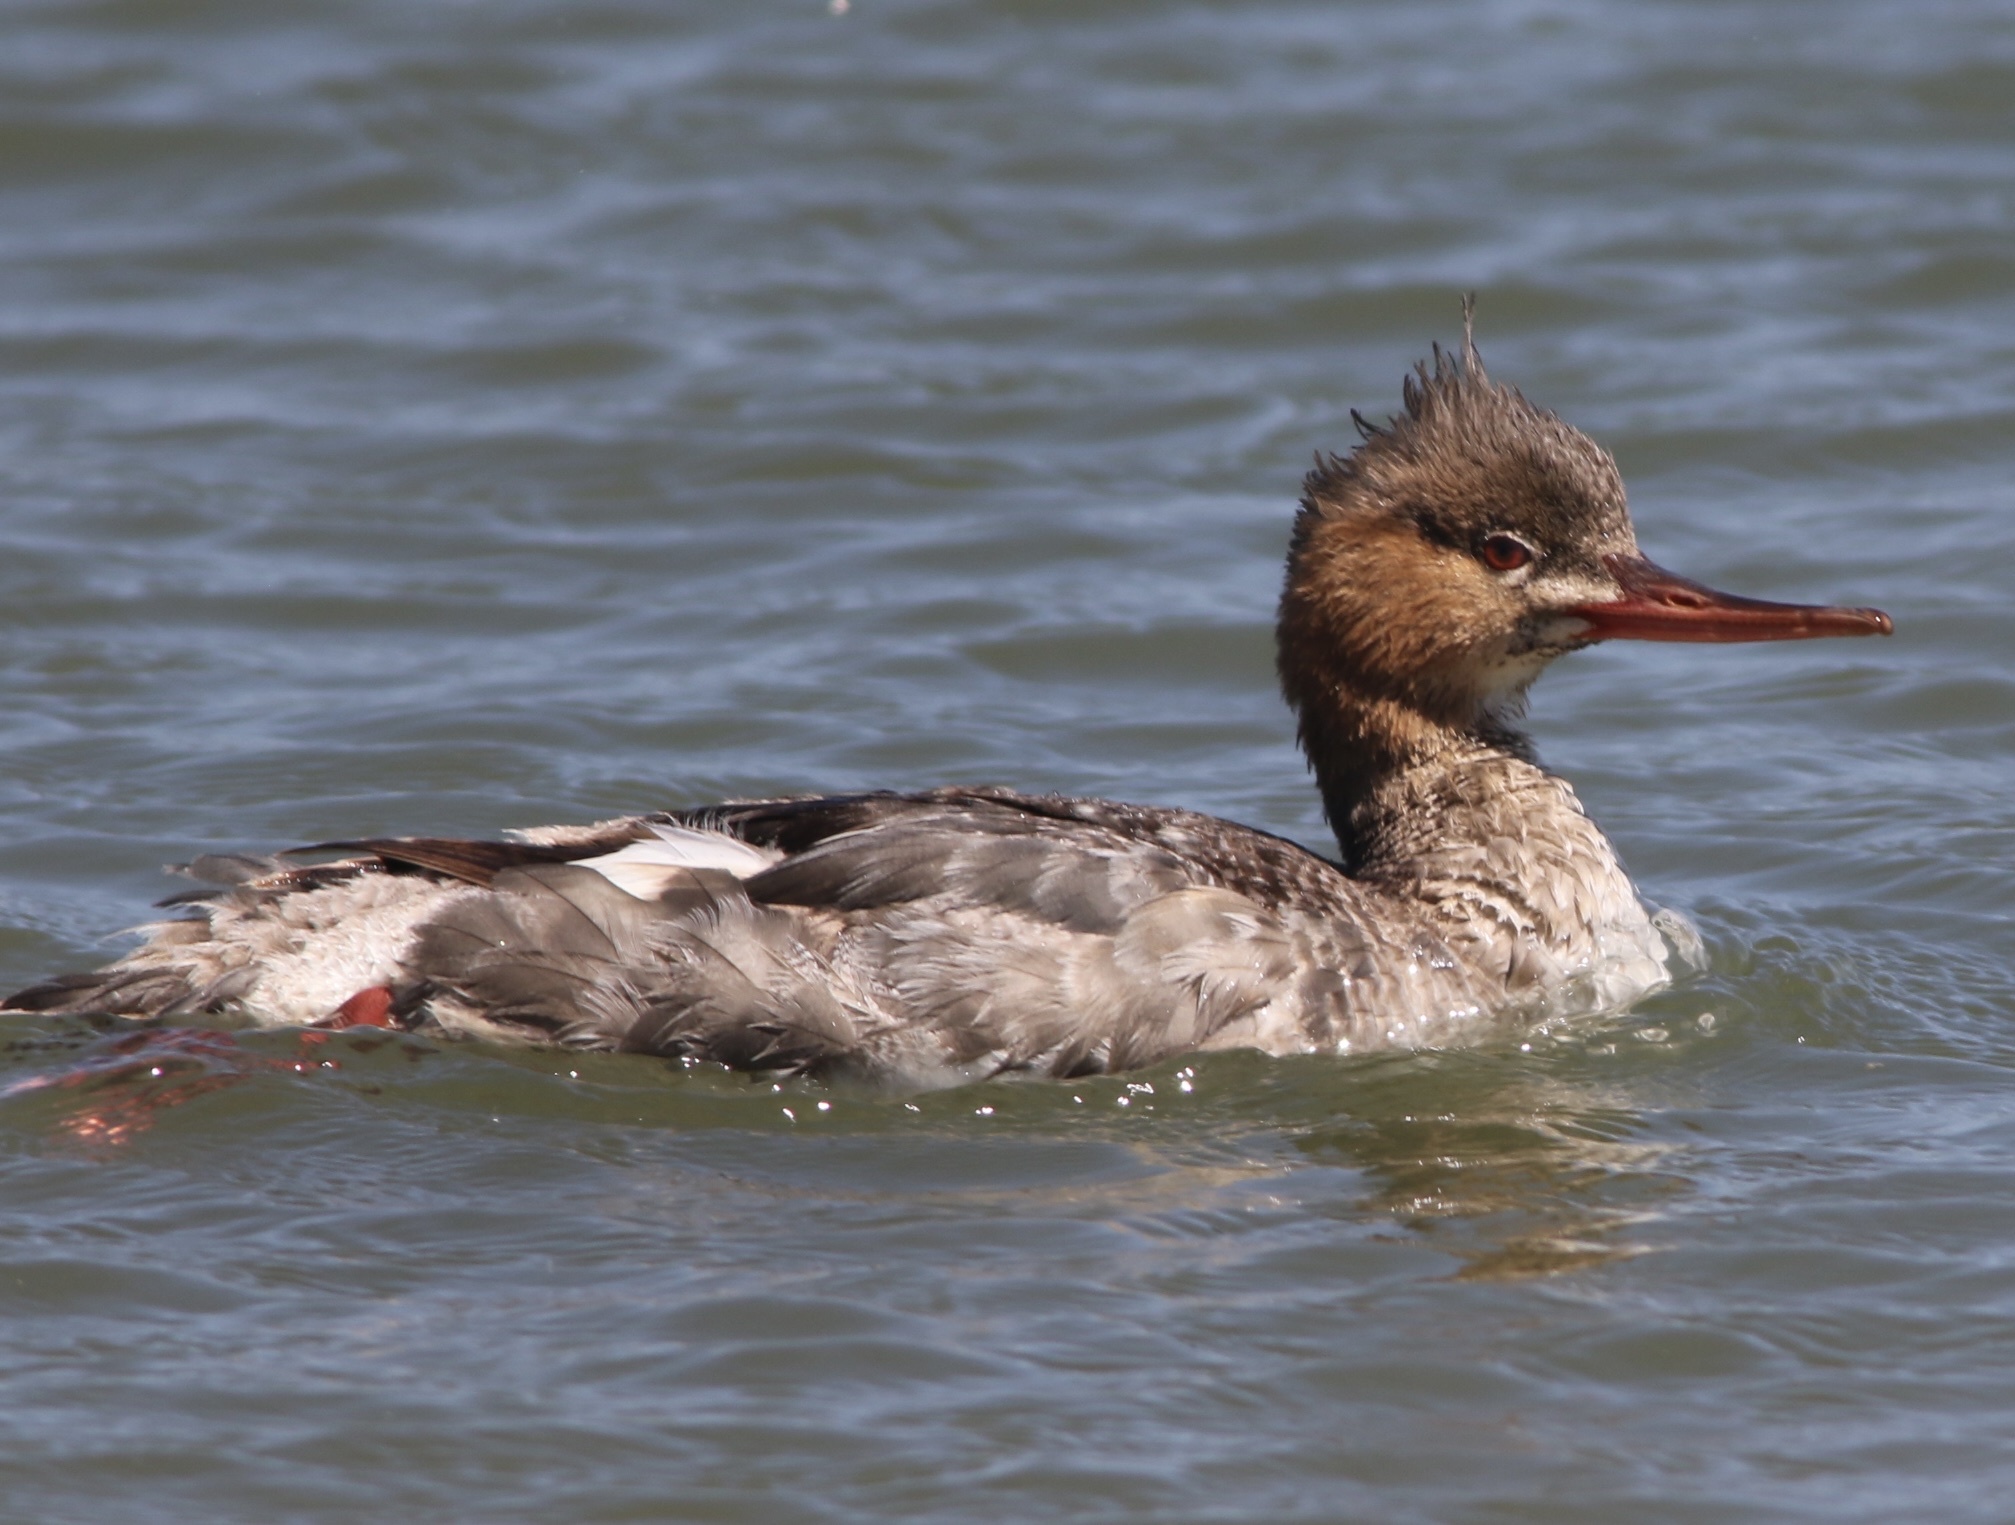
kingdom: Animalia
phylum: Chordata
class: Aves
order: Anseriformes
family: Anatidae
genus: Mergus
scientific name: Mergus serrator
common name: Red-breasted merganser
